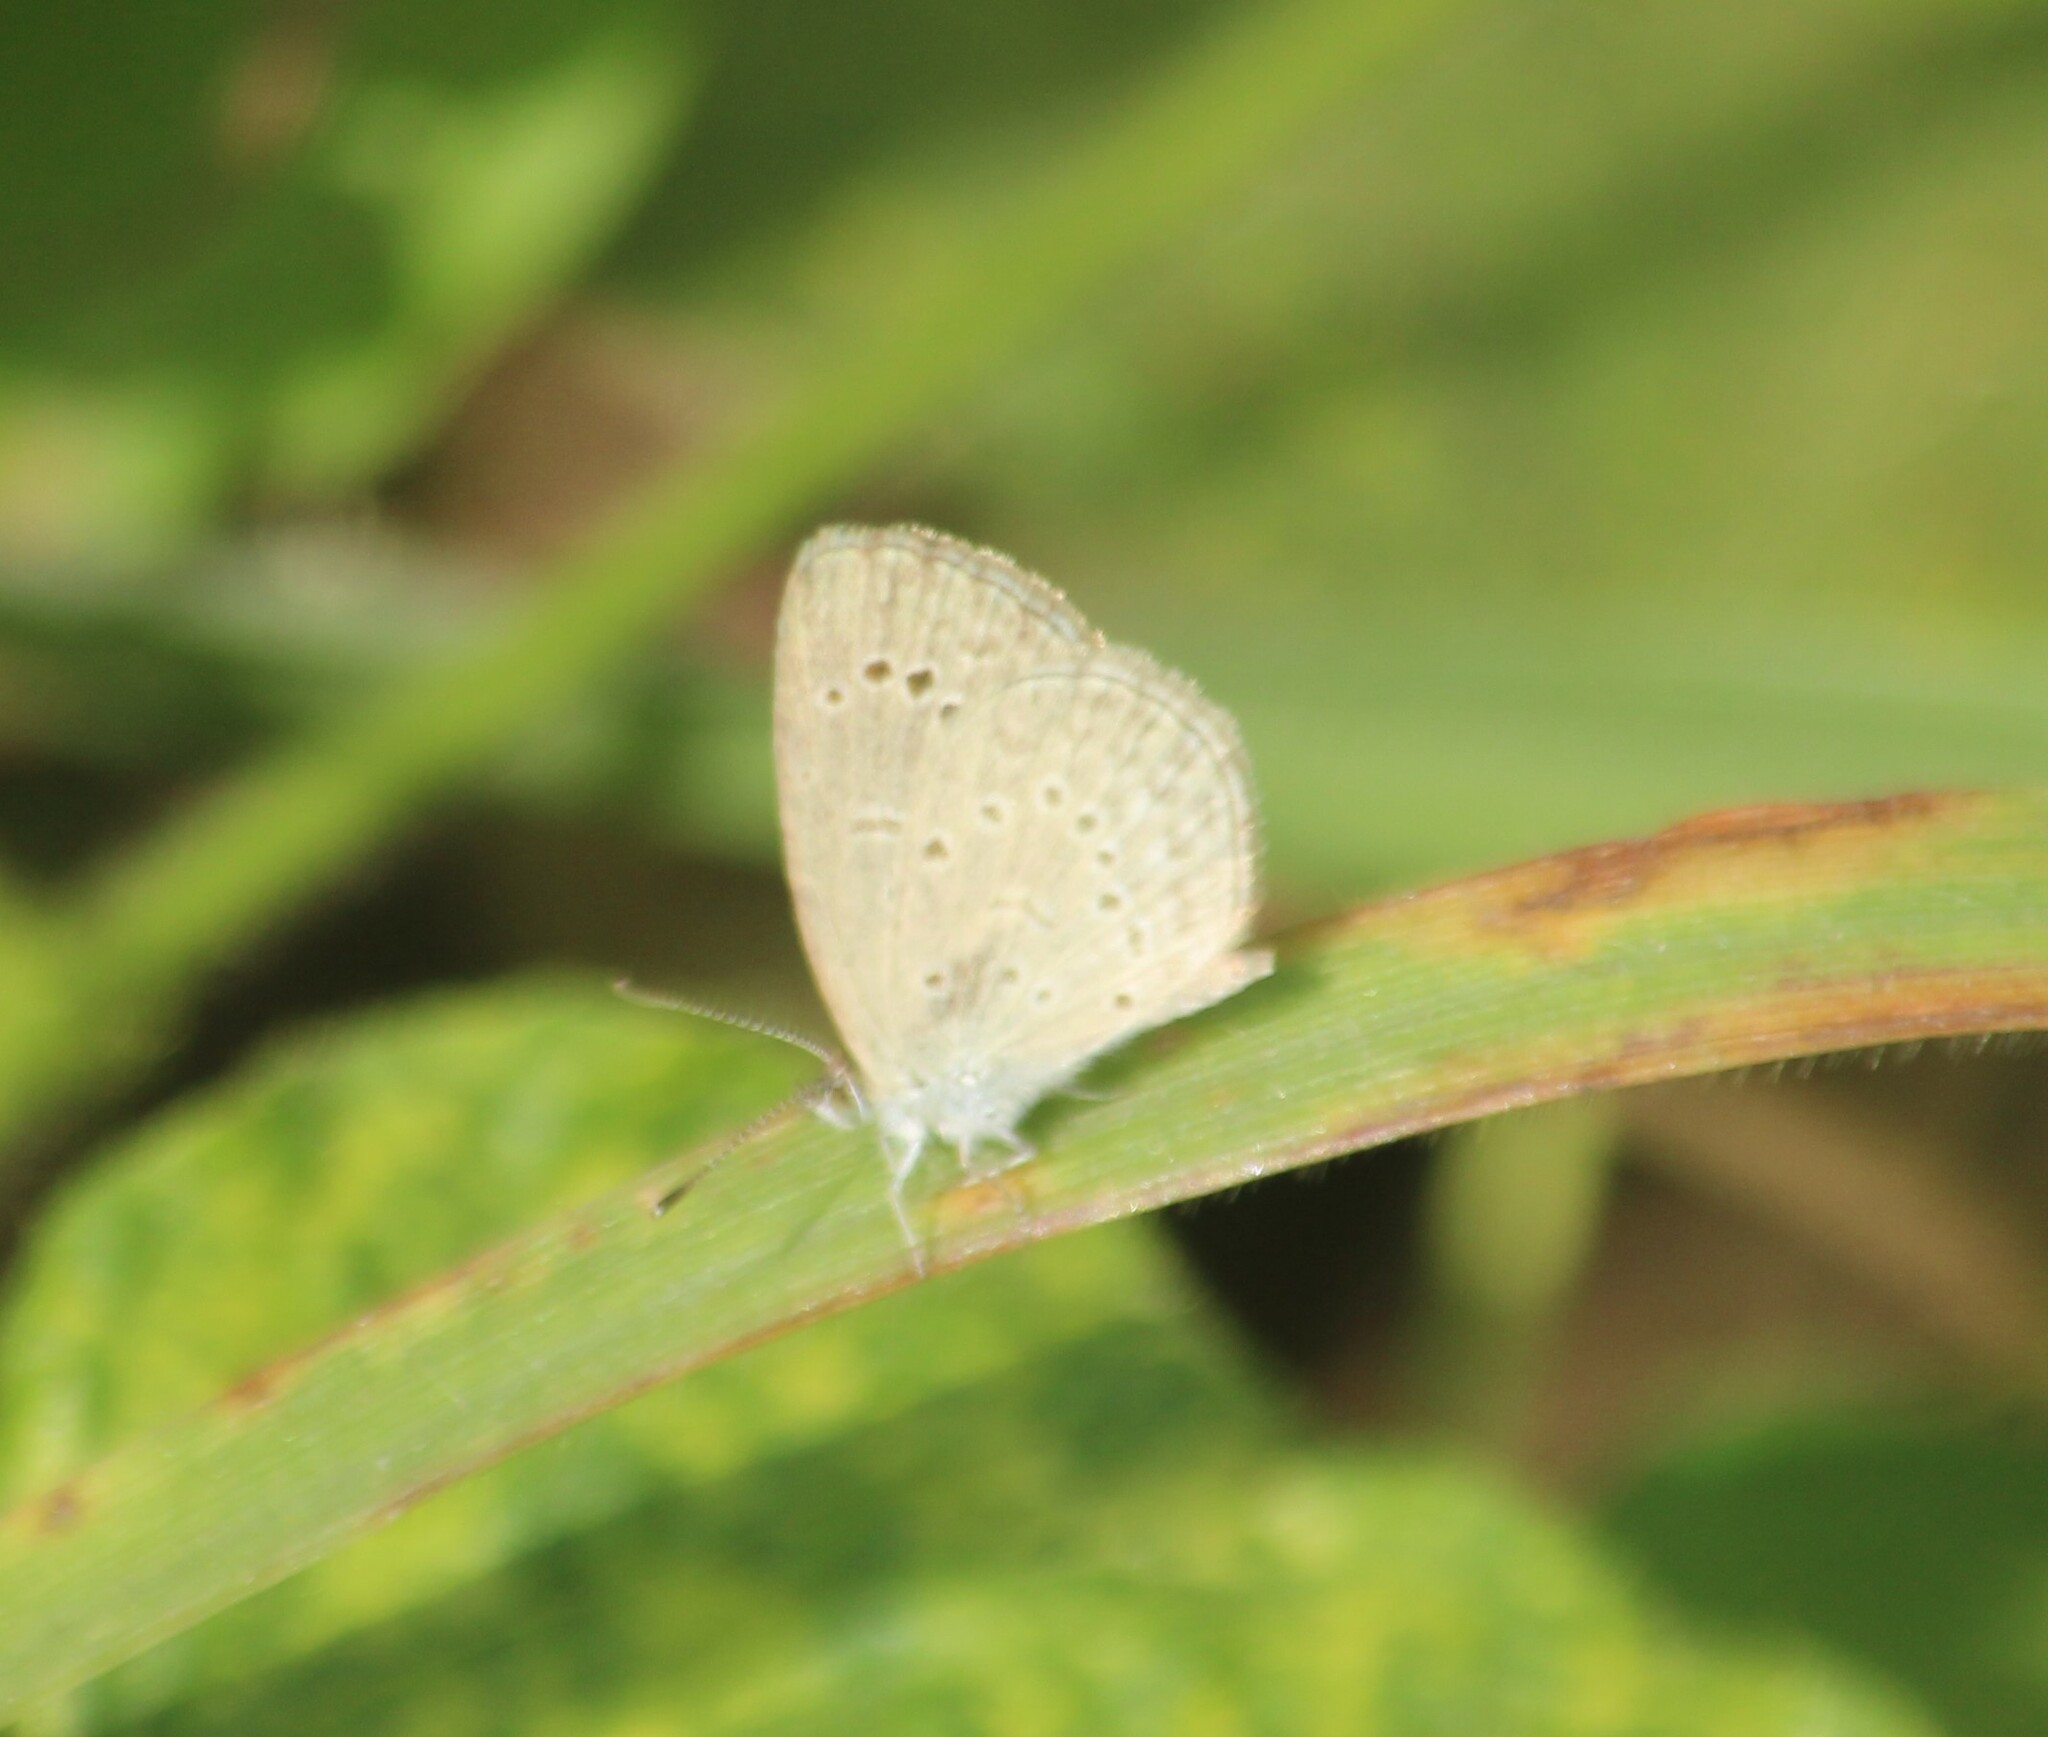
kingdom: Animalia
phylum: Arthropoda
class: Insecta
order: Lepidoptera
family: Lycaenidae
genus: Pseudozizeeria
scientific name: Pseudozizeeria maha
